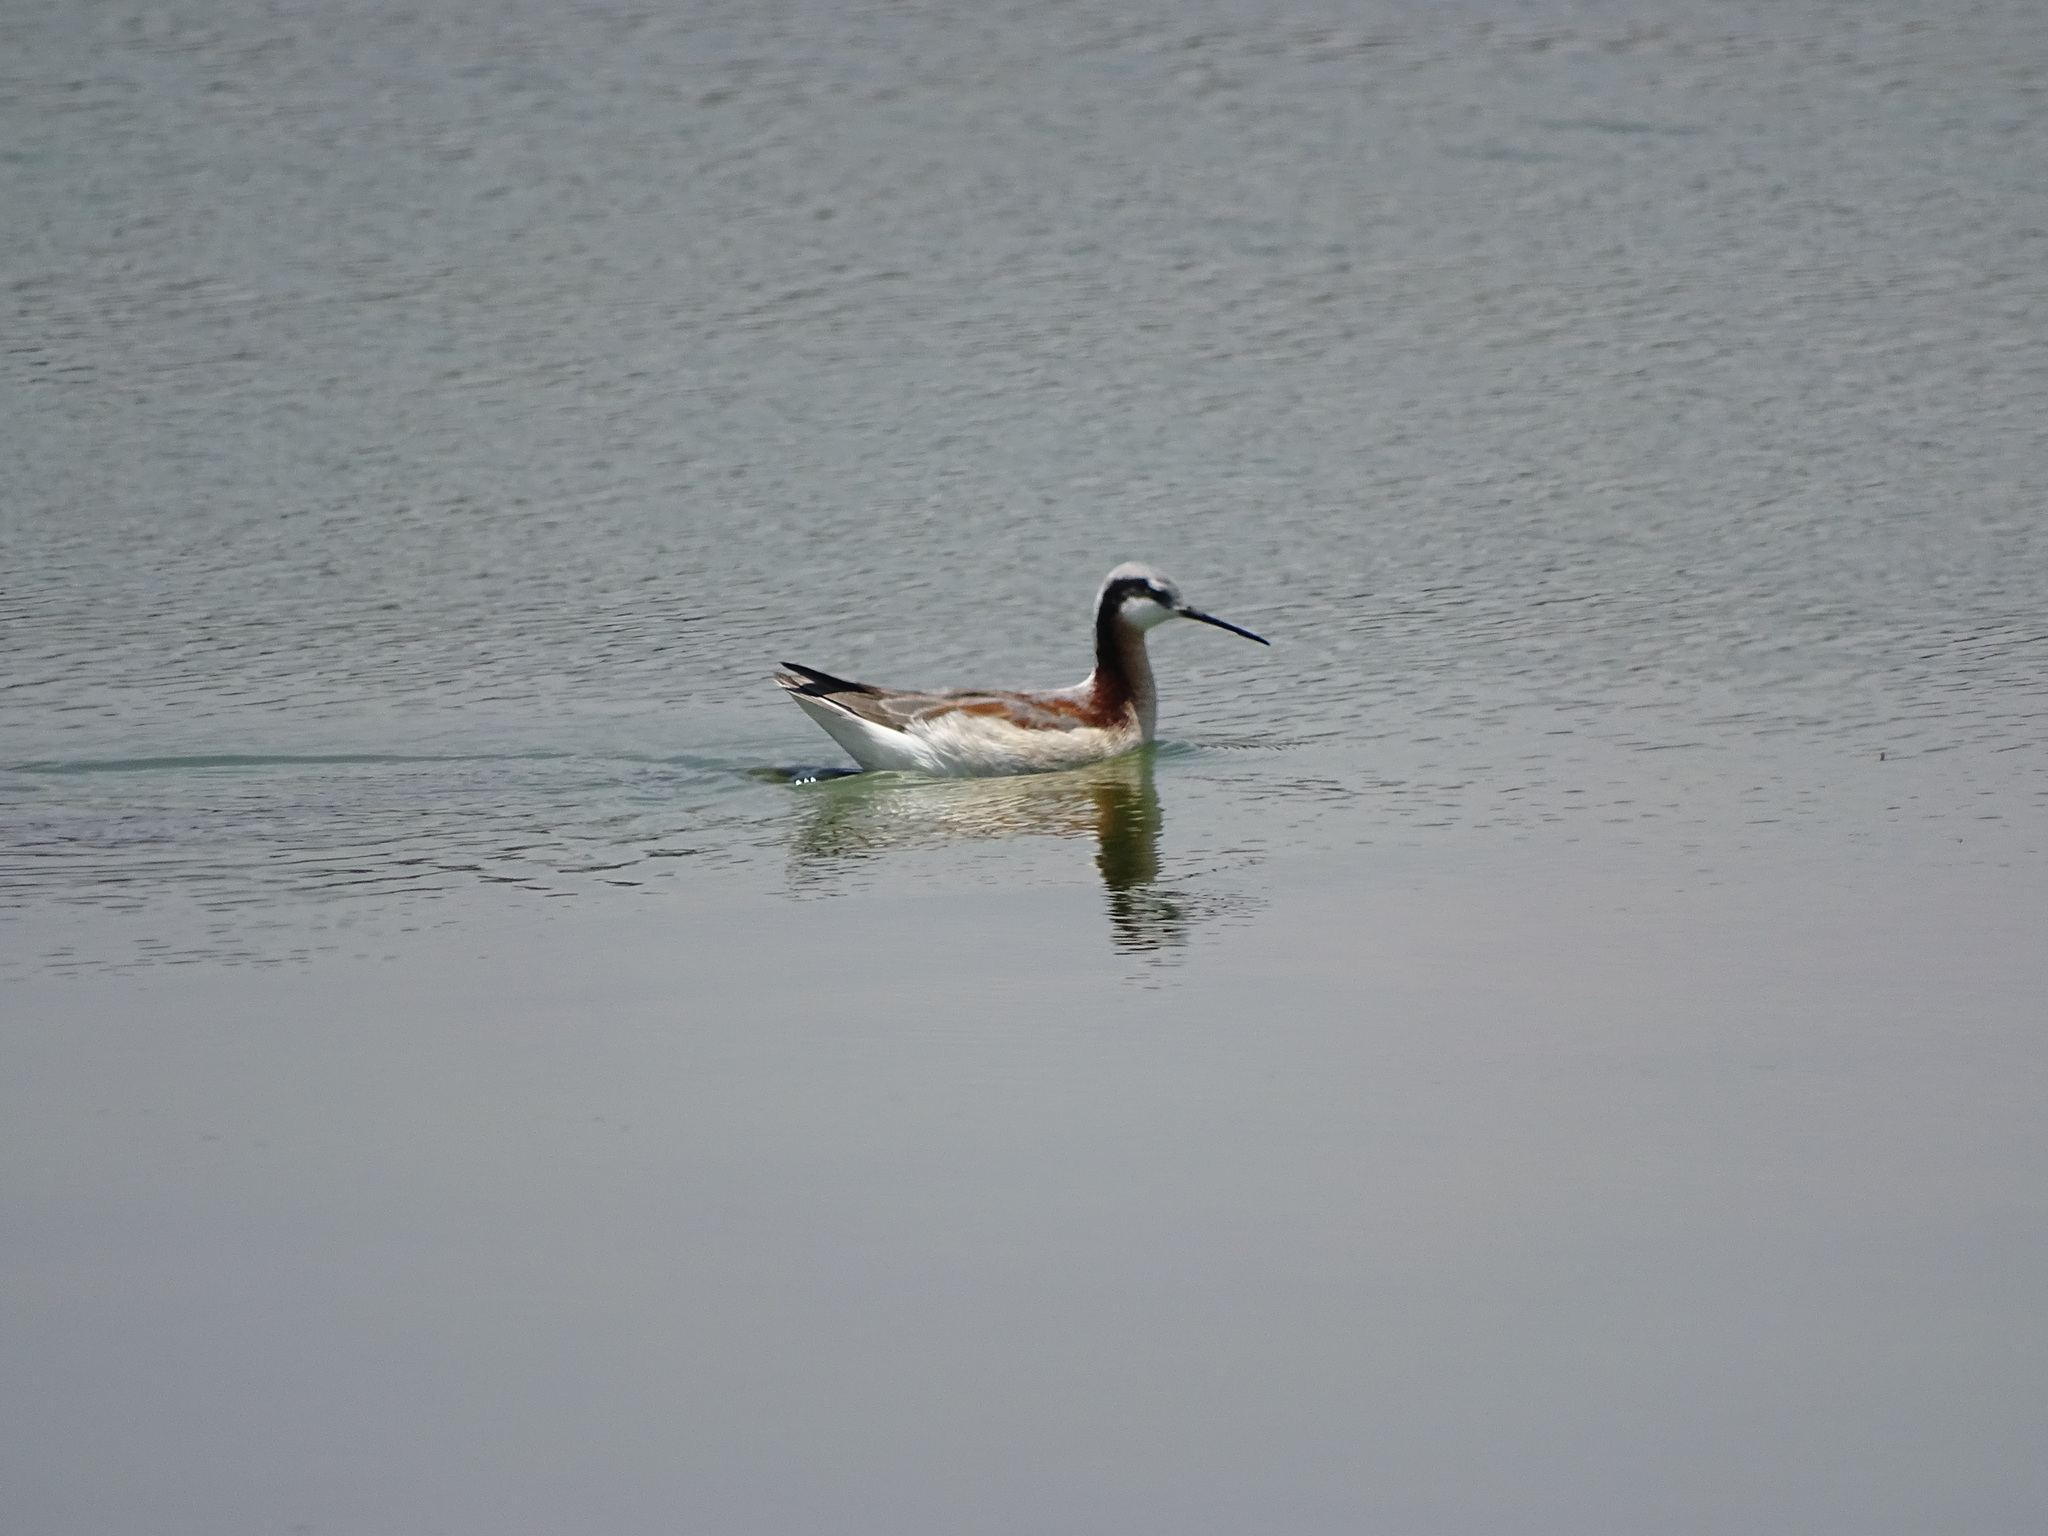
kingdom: Animalia
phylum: Chordata
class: Aves
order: Charadriiformes
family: Scolopacidae
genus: Phalaropus
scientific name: Phalaropus tricolor
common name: Wilson's phalarope
